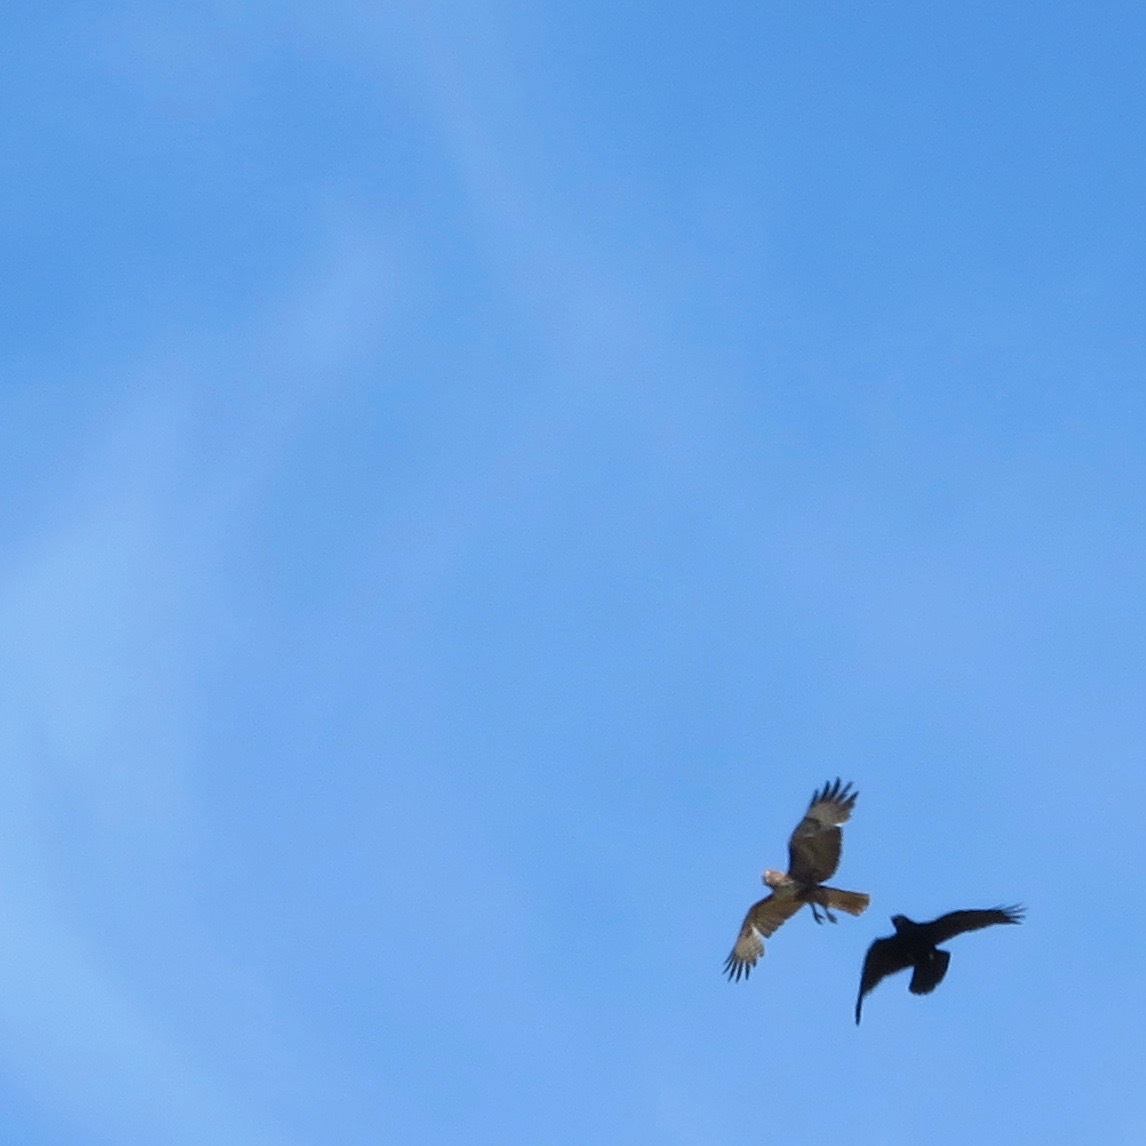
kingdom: Animalia
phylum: Chordata
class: Aves
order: Passeriformes
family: Corvidae
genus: Corvus
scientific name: Corvus corax
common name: Common raven
